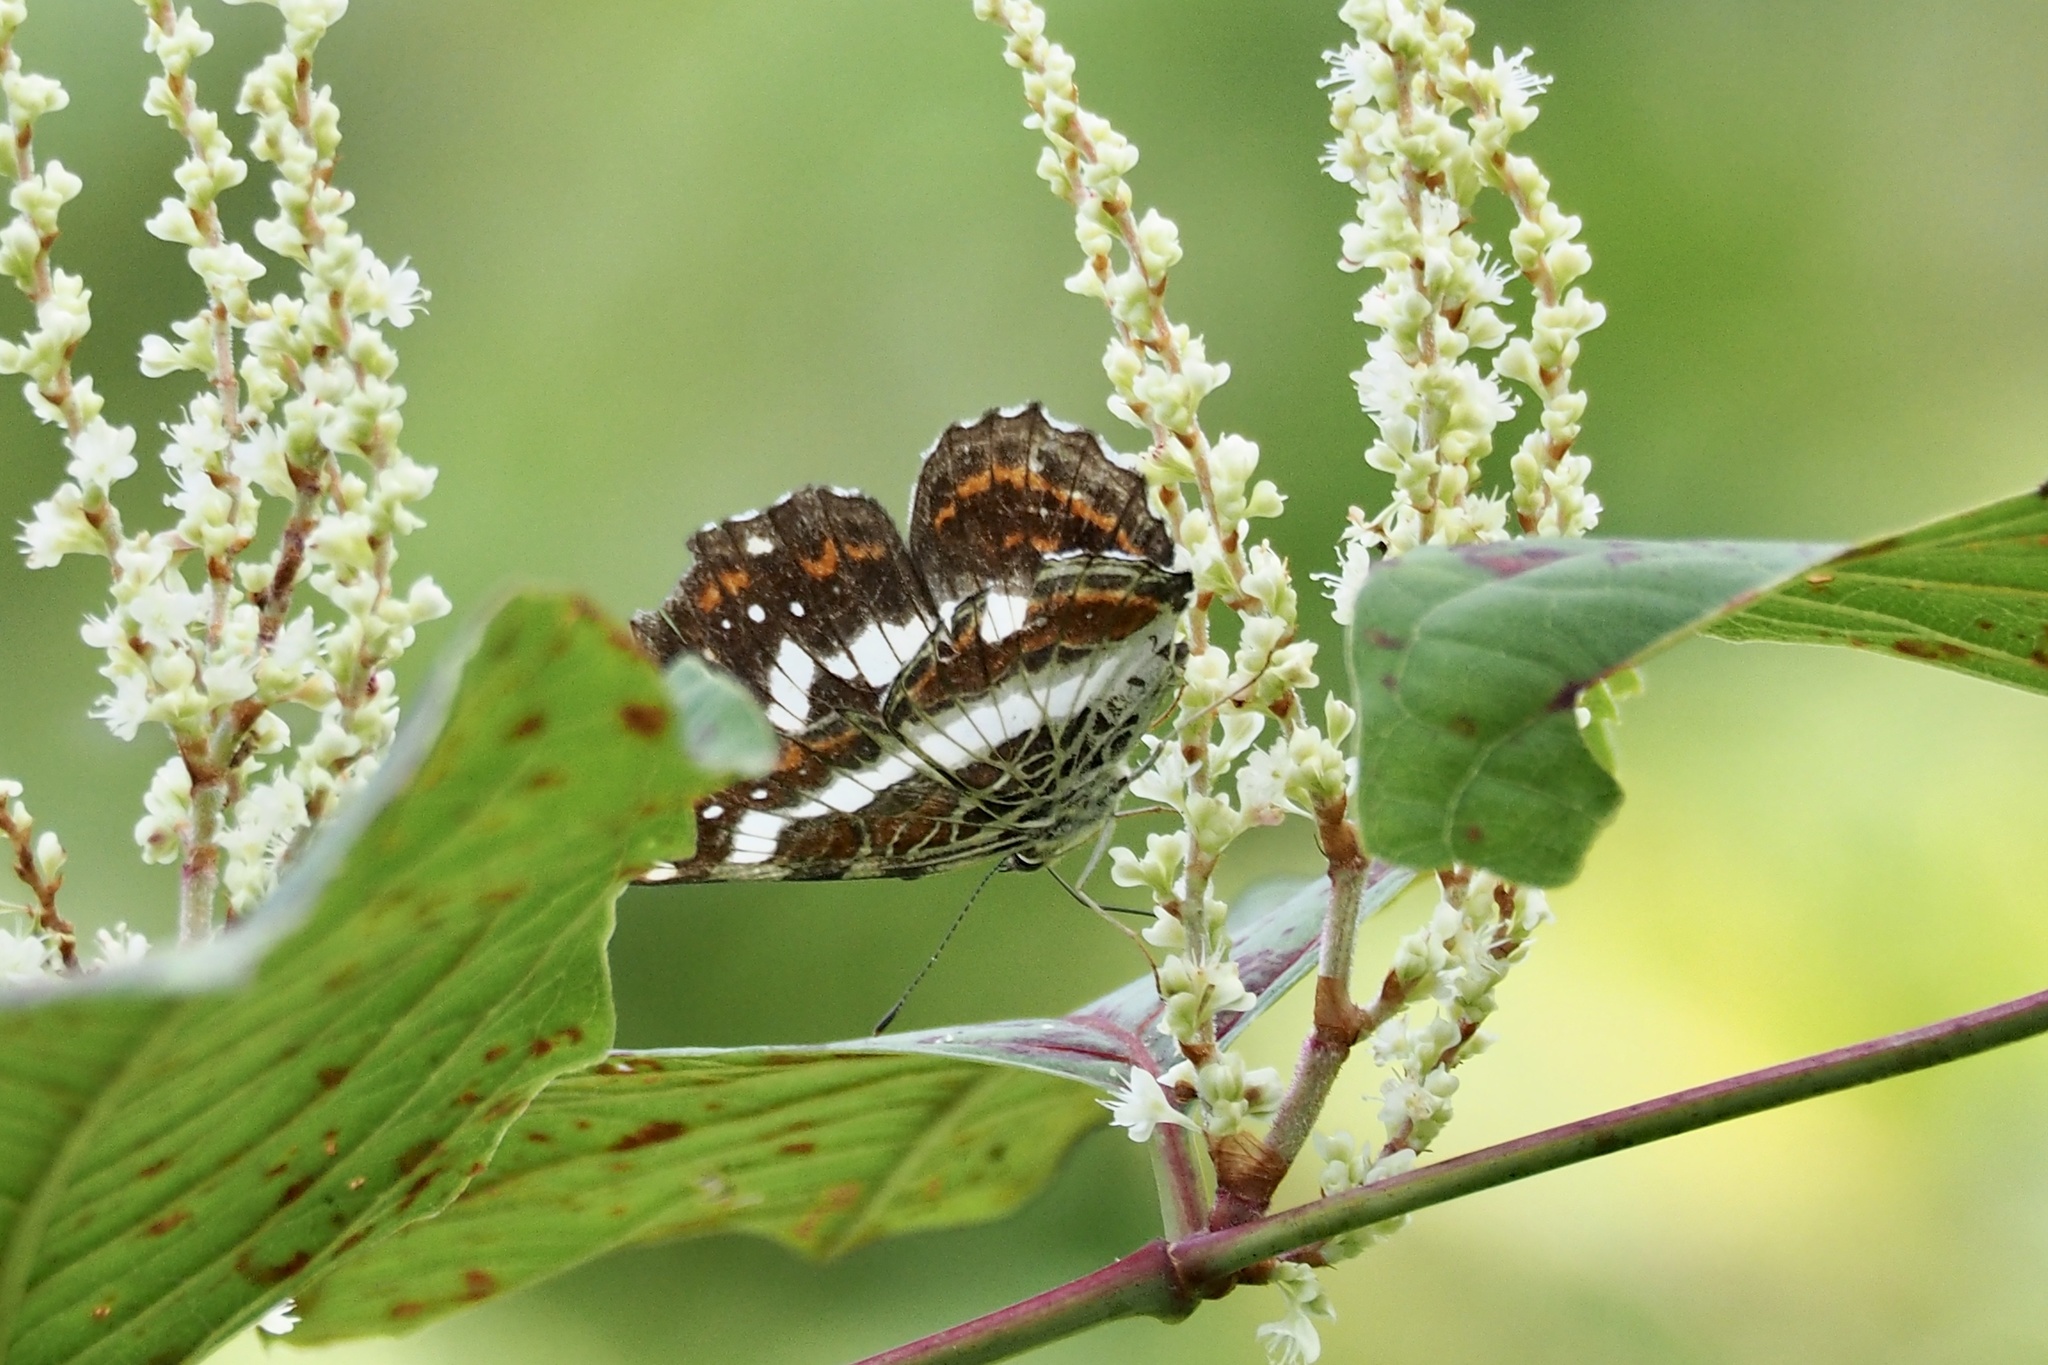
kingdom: Animalia
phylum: Arthropoda
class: Insecta
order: Lepidoptera
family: Nymphalidae
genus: Araschnia
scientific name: Araschnia burejana
